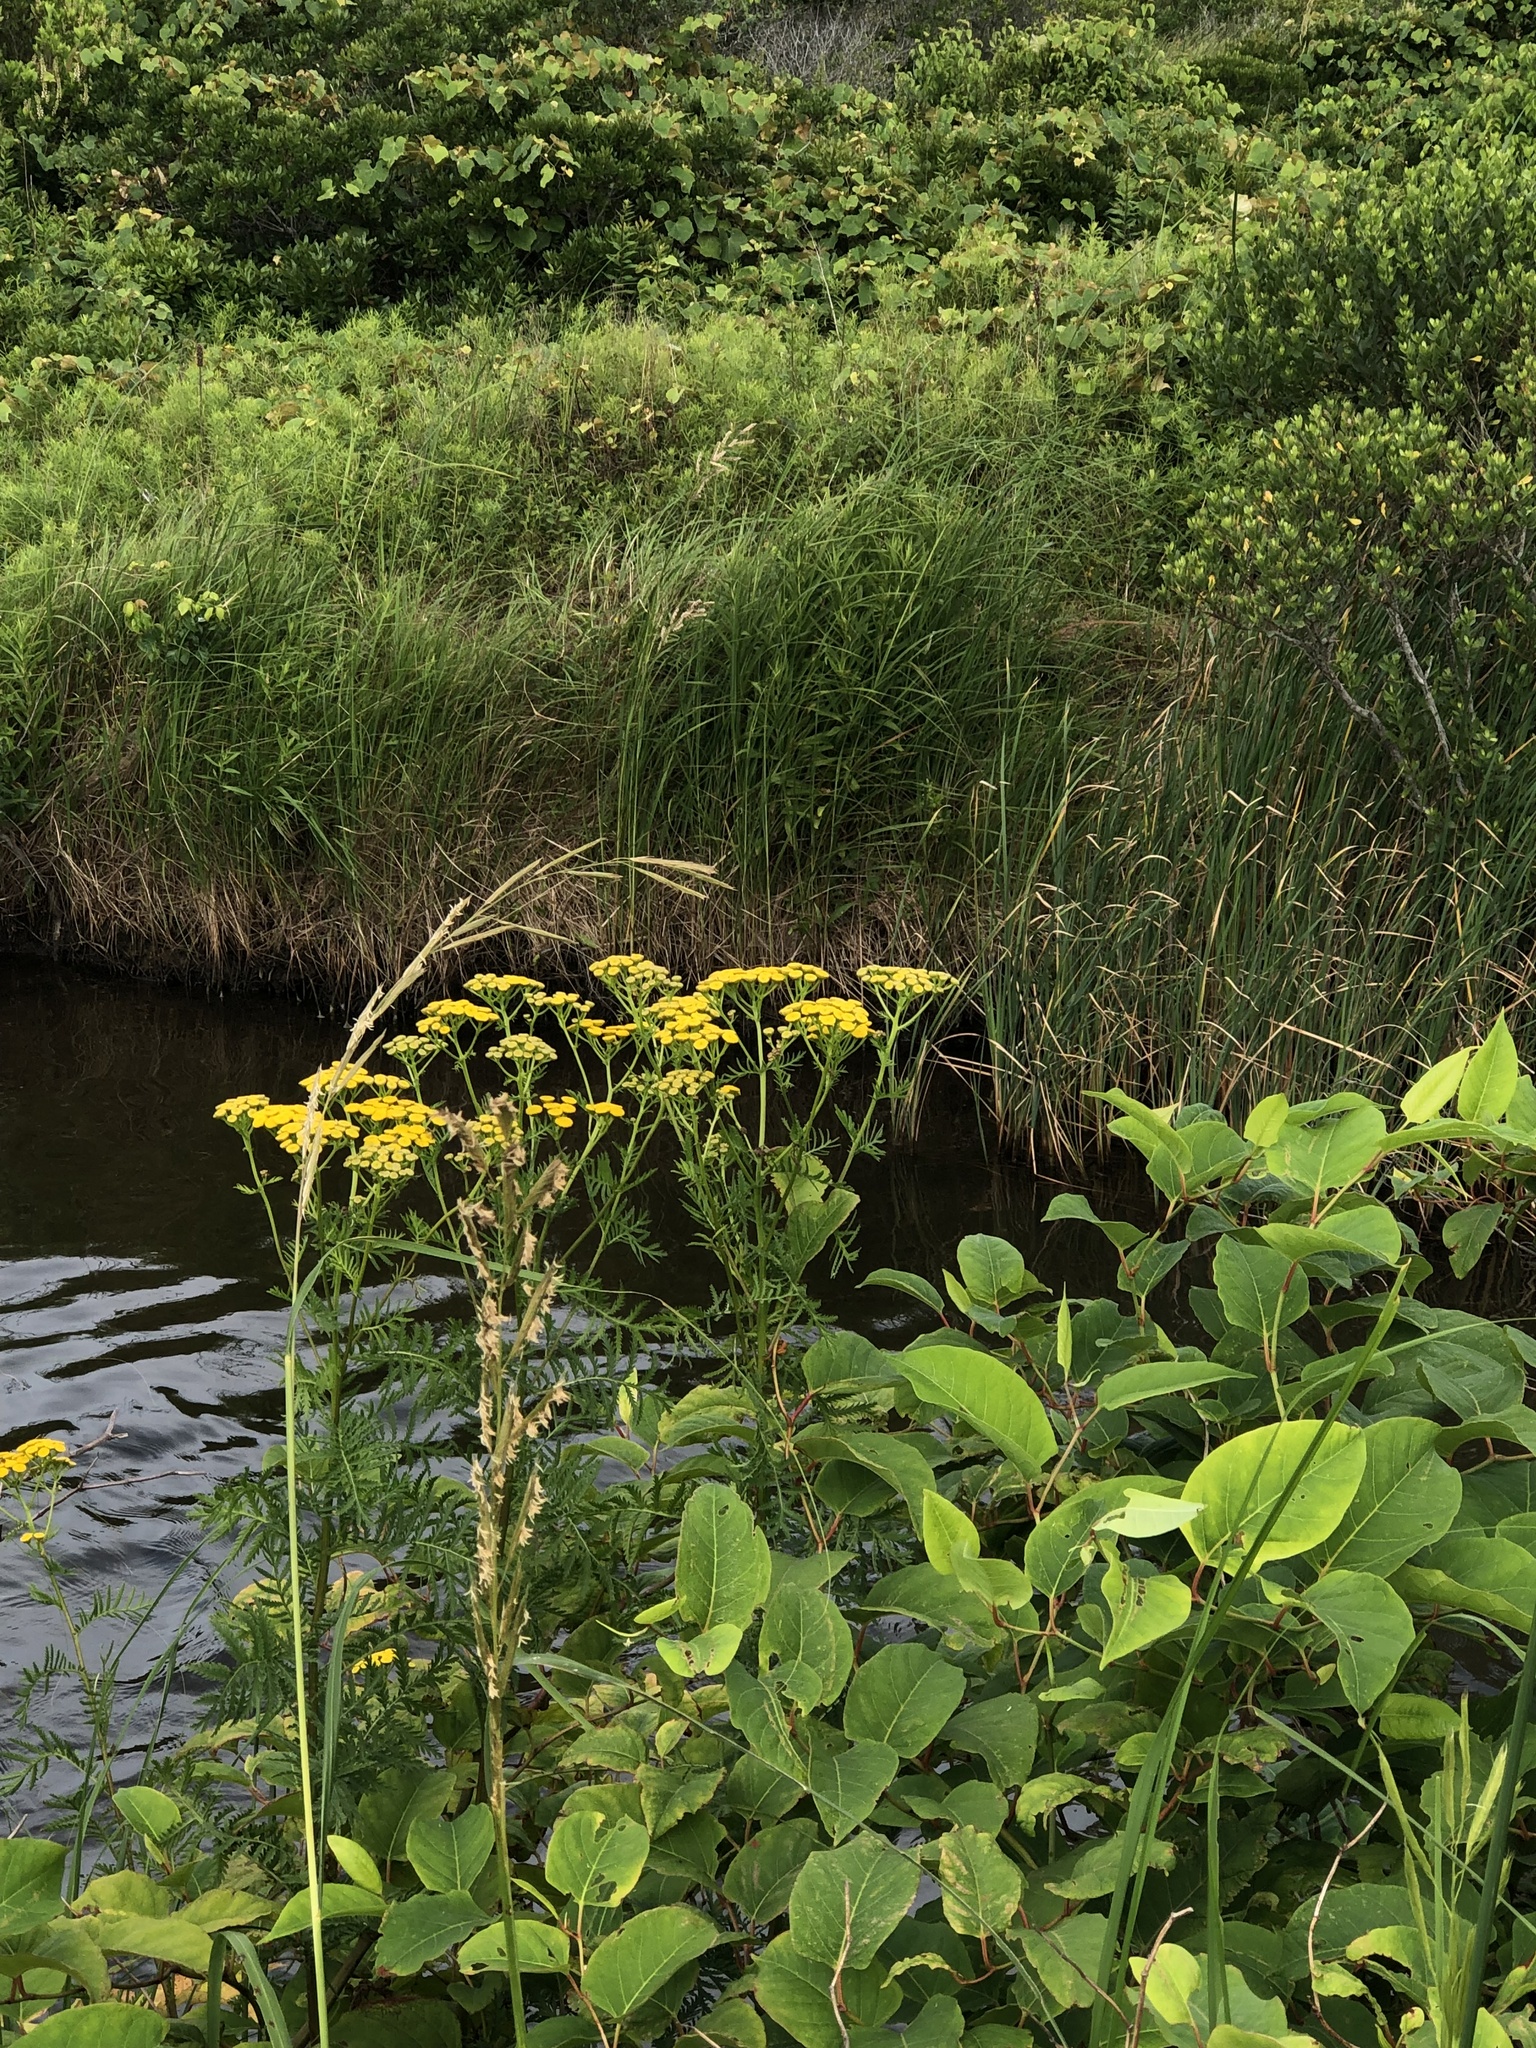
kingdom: Plantae
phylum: Tracheophyta
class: Magnoliopsida
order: Asterales
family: Asteraceae
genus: Tanacetum
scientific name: Tanacetum vulgare
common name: Common tansy
